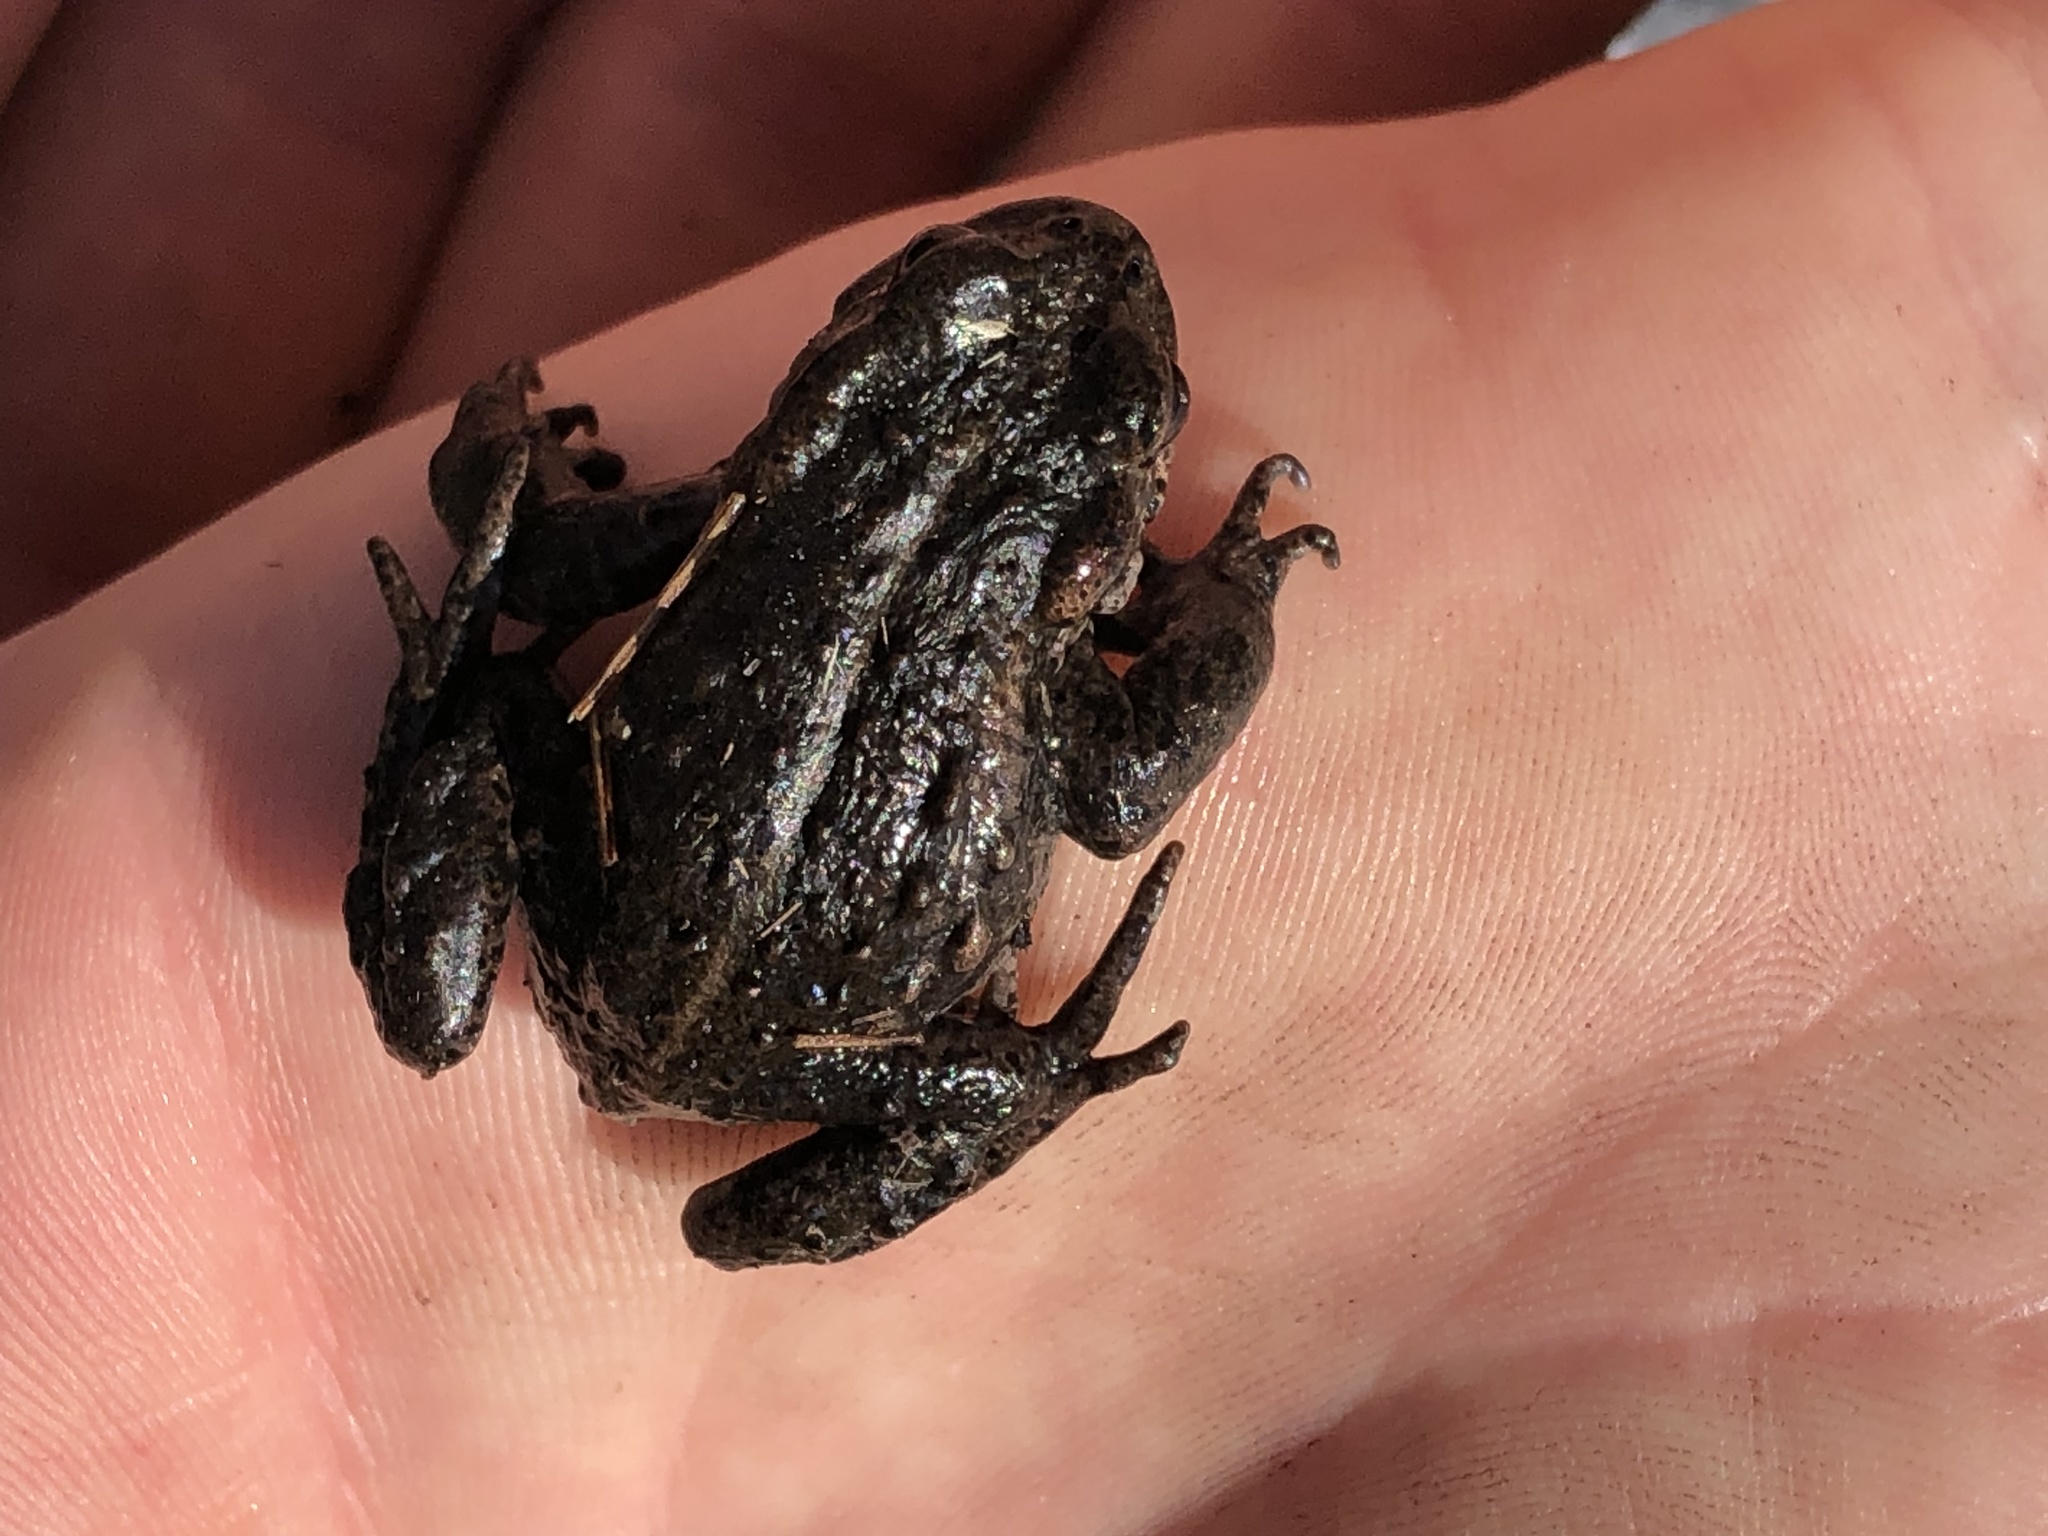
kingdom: Animalia
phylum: Chordata
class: Amphibia
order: Anura
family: Bufonidae
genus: Capensibufo
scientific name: Capensibufo tradouwi
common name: Tradouw mountain toadlet
